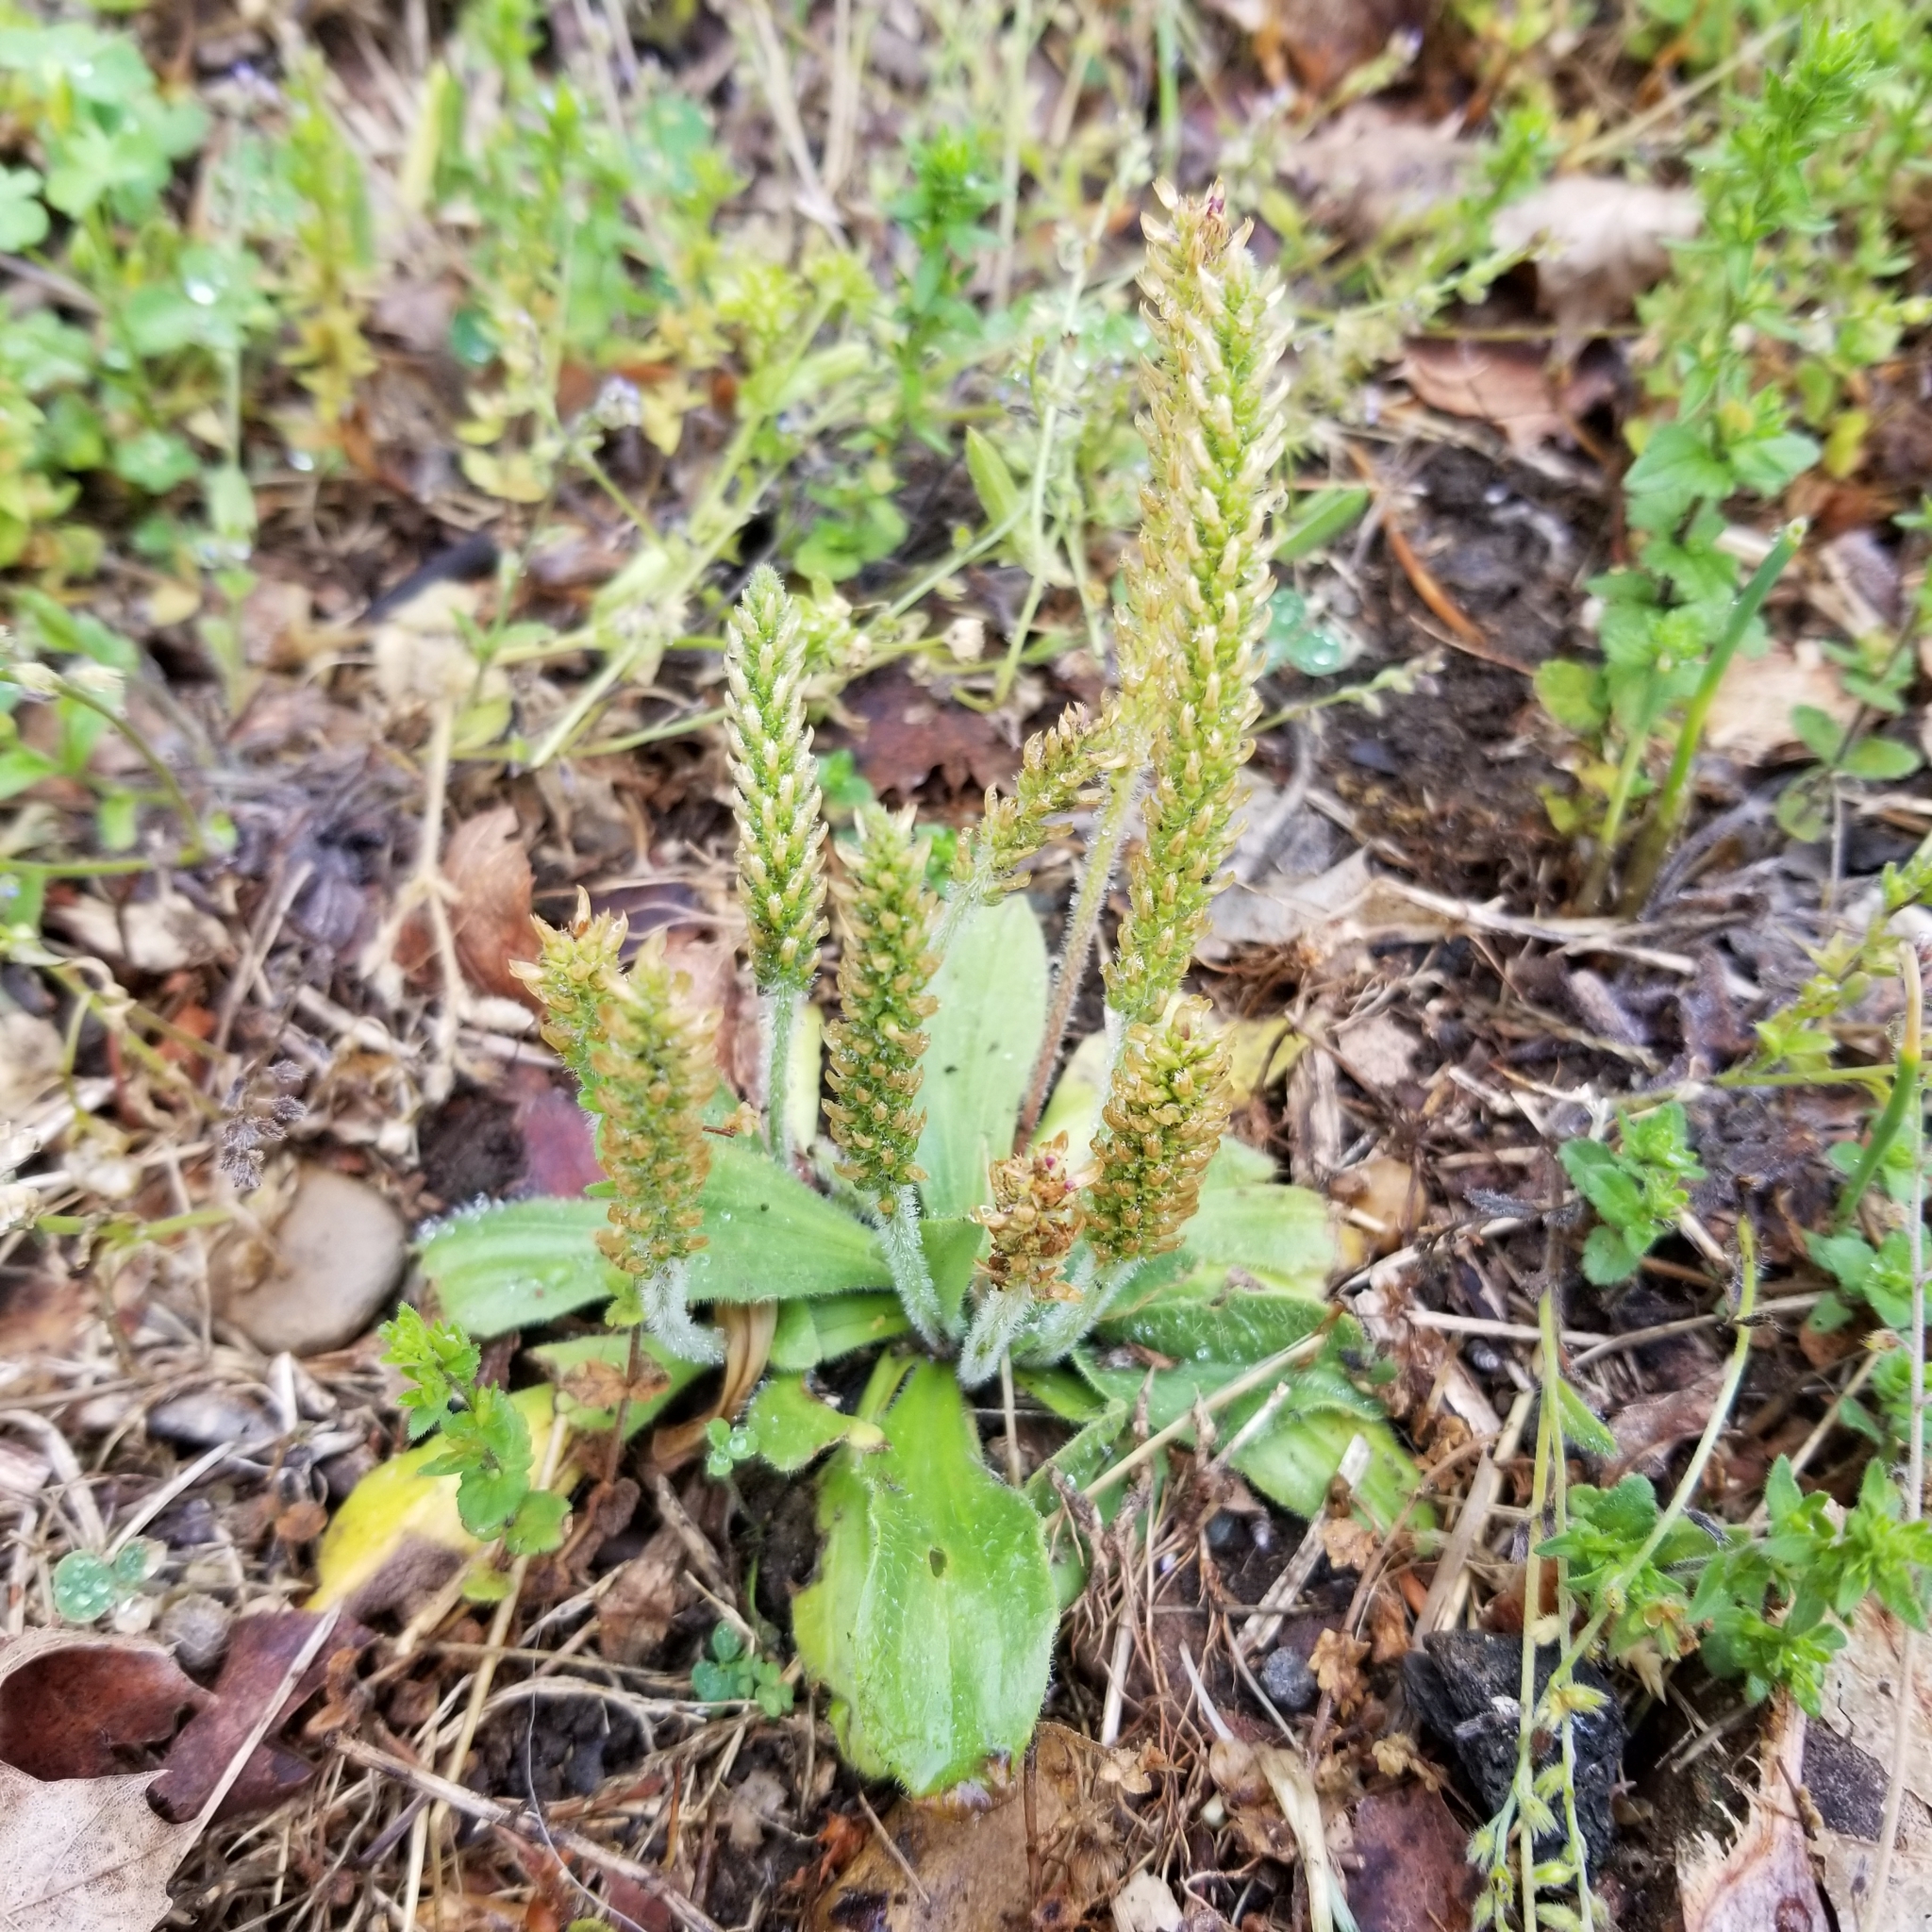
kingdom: Plantae
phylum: Tracheophyta
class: Magnoliopsida
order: Lamiales
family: Plantaginaceae
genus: Plantago
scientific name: Plantago virginica
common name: Hoary plantain
